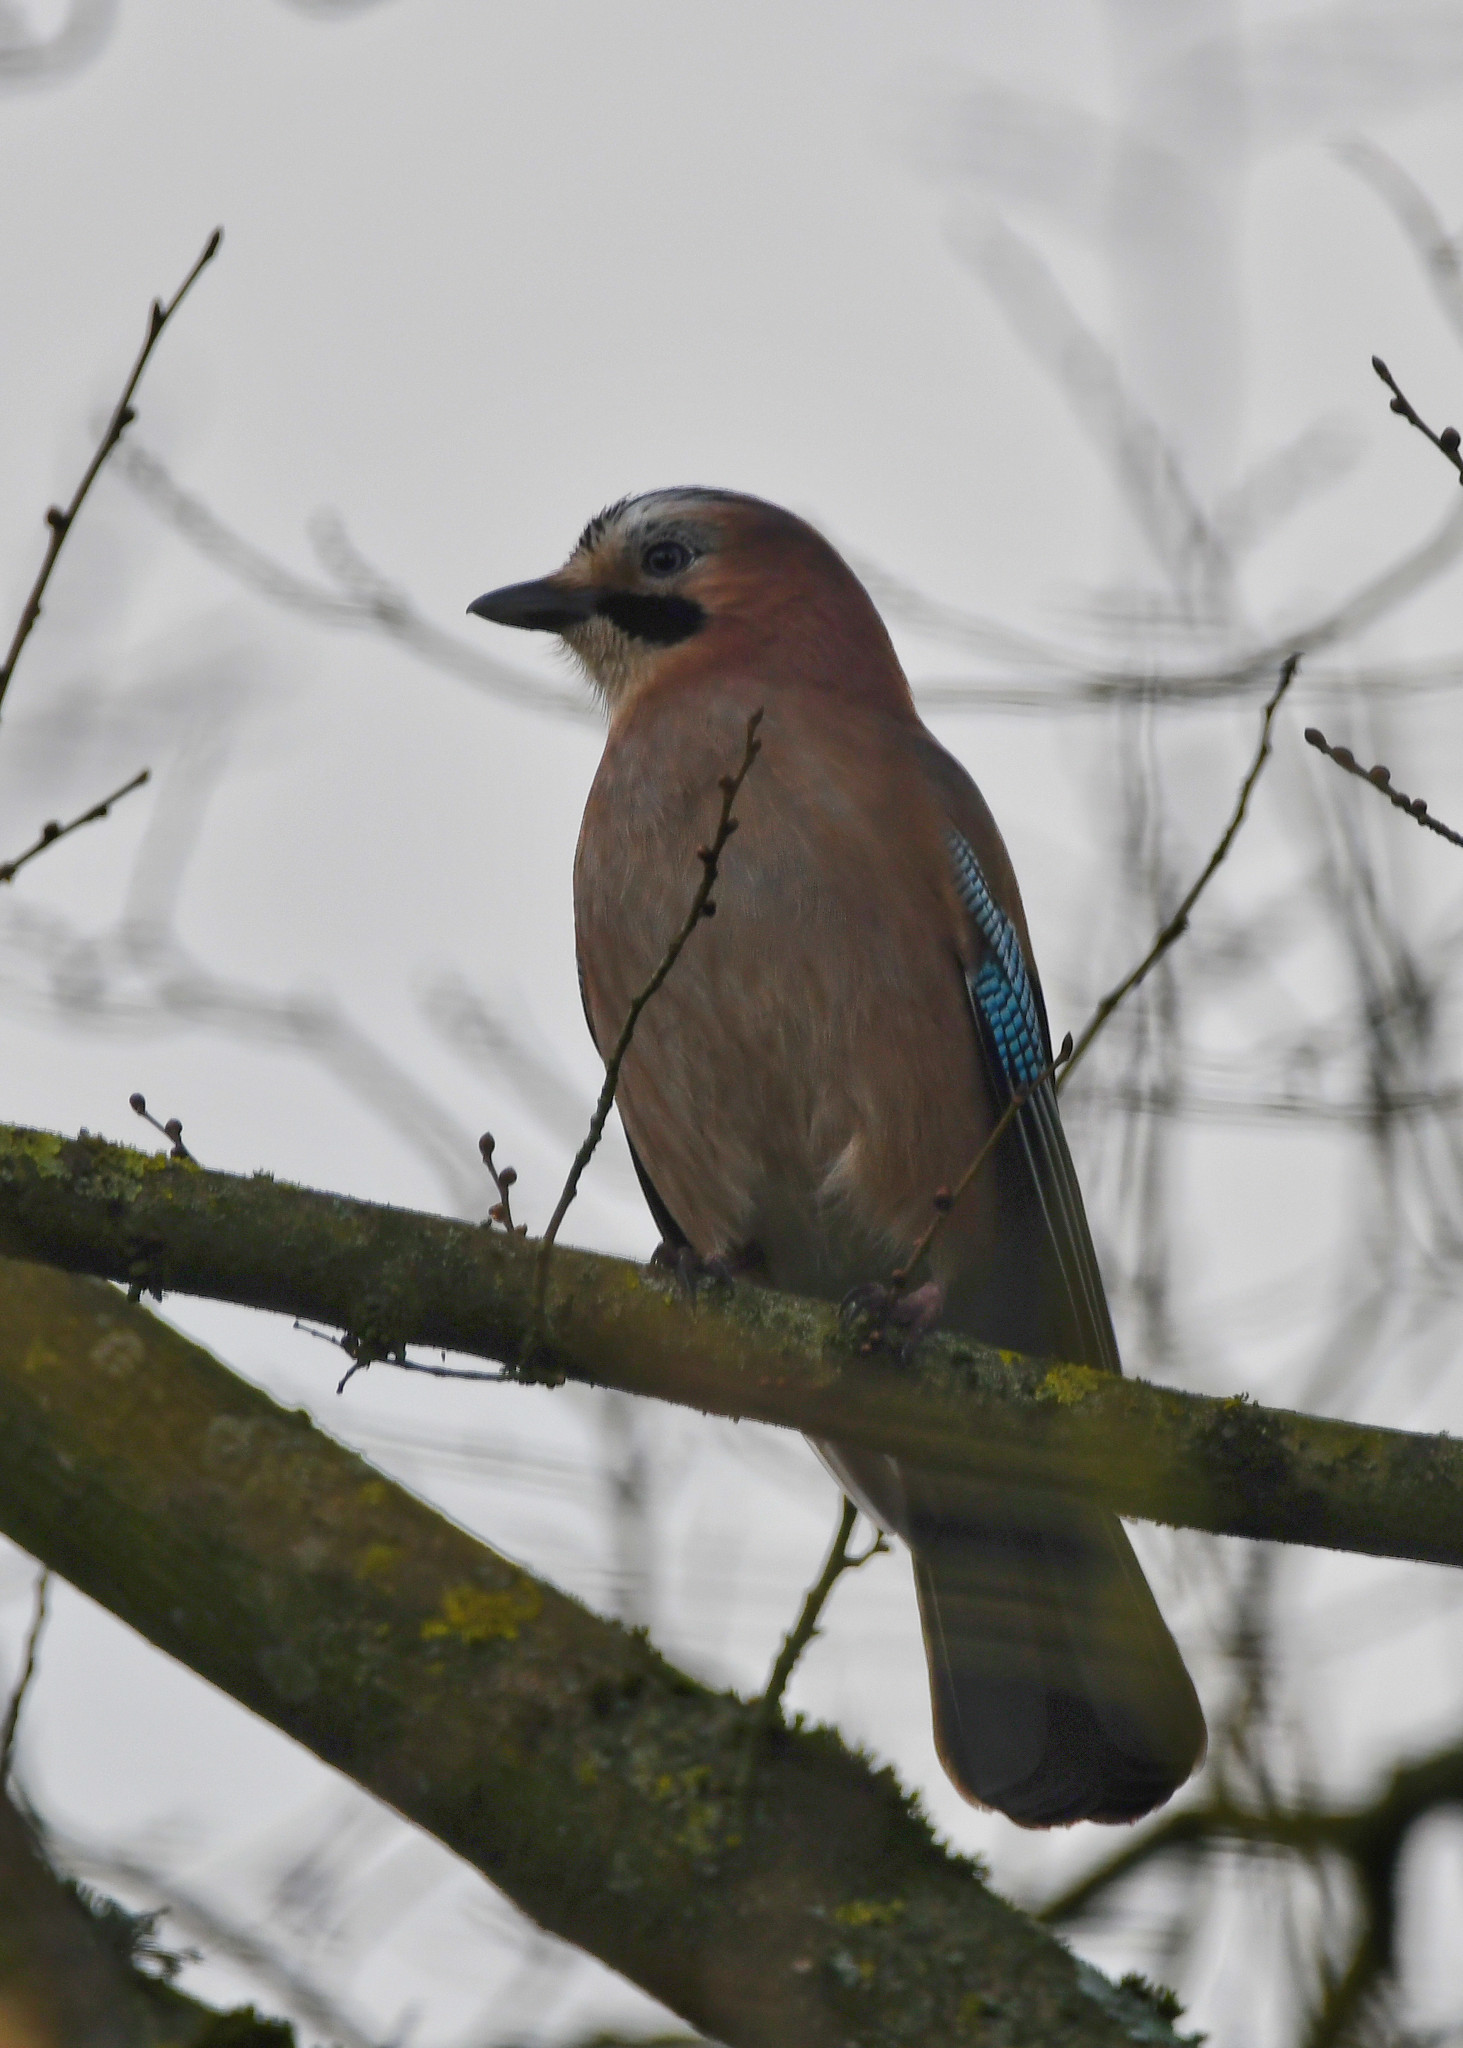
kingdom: Animalia
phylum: Chordata
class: Aves
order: Passeriformes
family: Corvidae
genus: Garrulus
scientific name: Garrulus glandarius
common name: Eurasian jay
